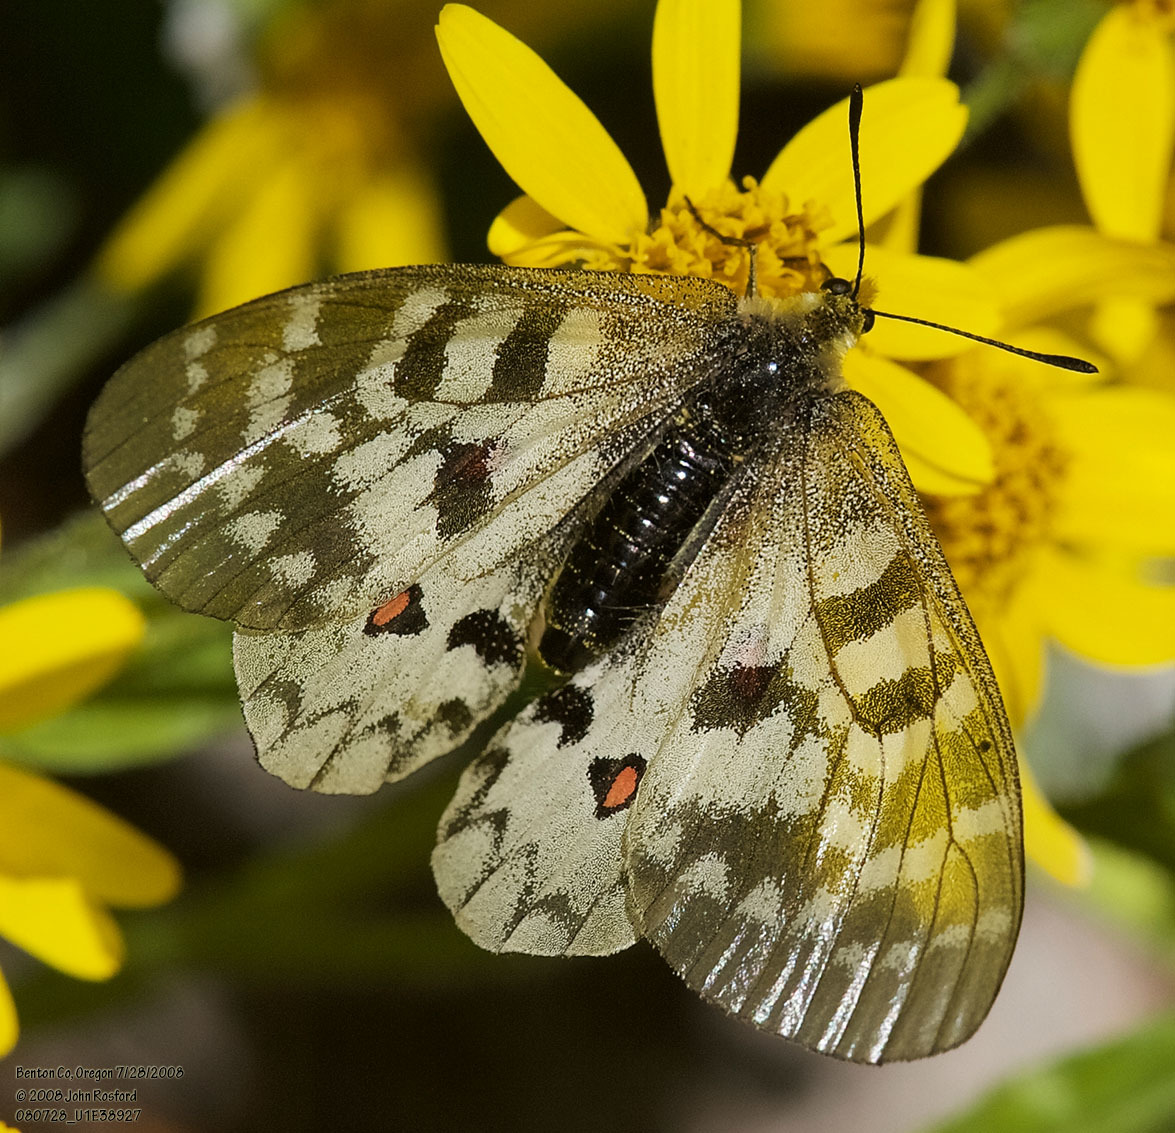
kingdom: Animalia
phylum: Arthropoda
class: Insecta
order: Lepidoptera
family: Papilionidae
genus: Parnassius
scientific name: Parnassius clodius
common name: American apollo
